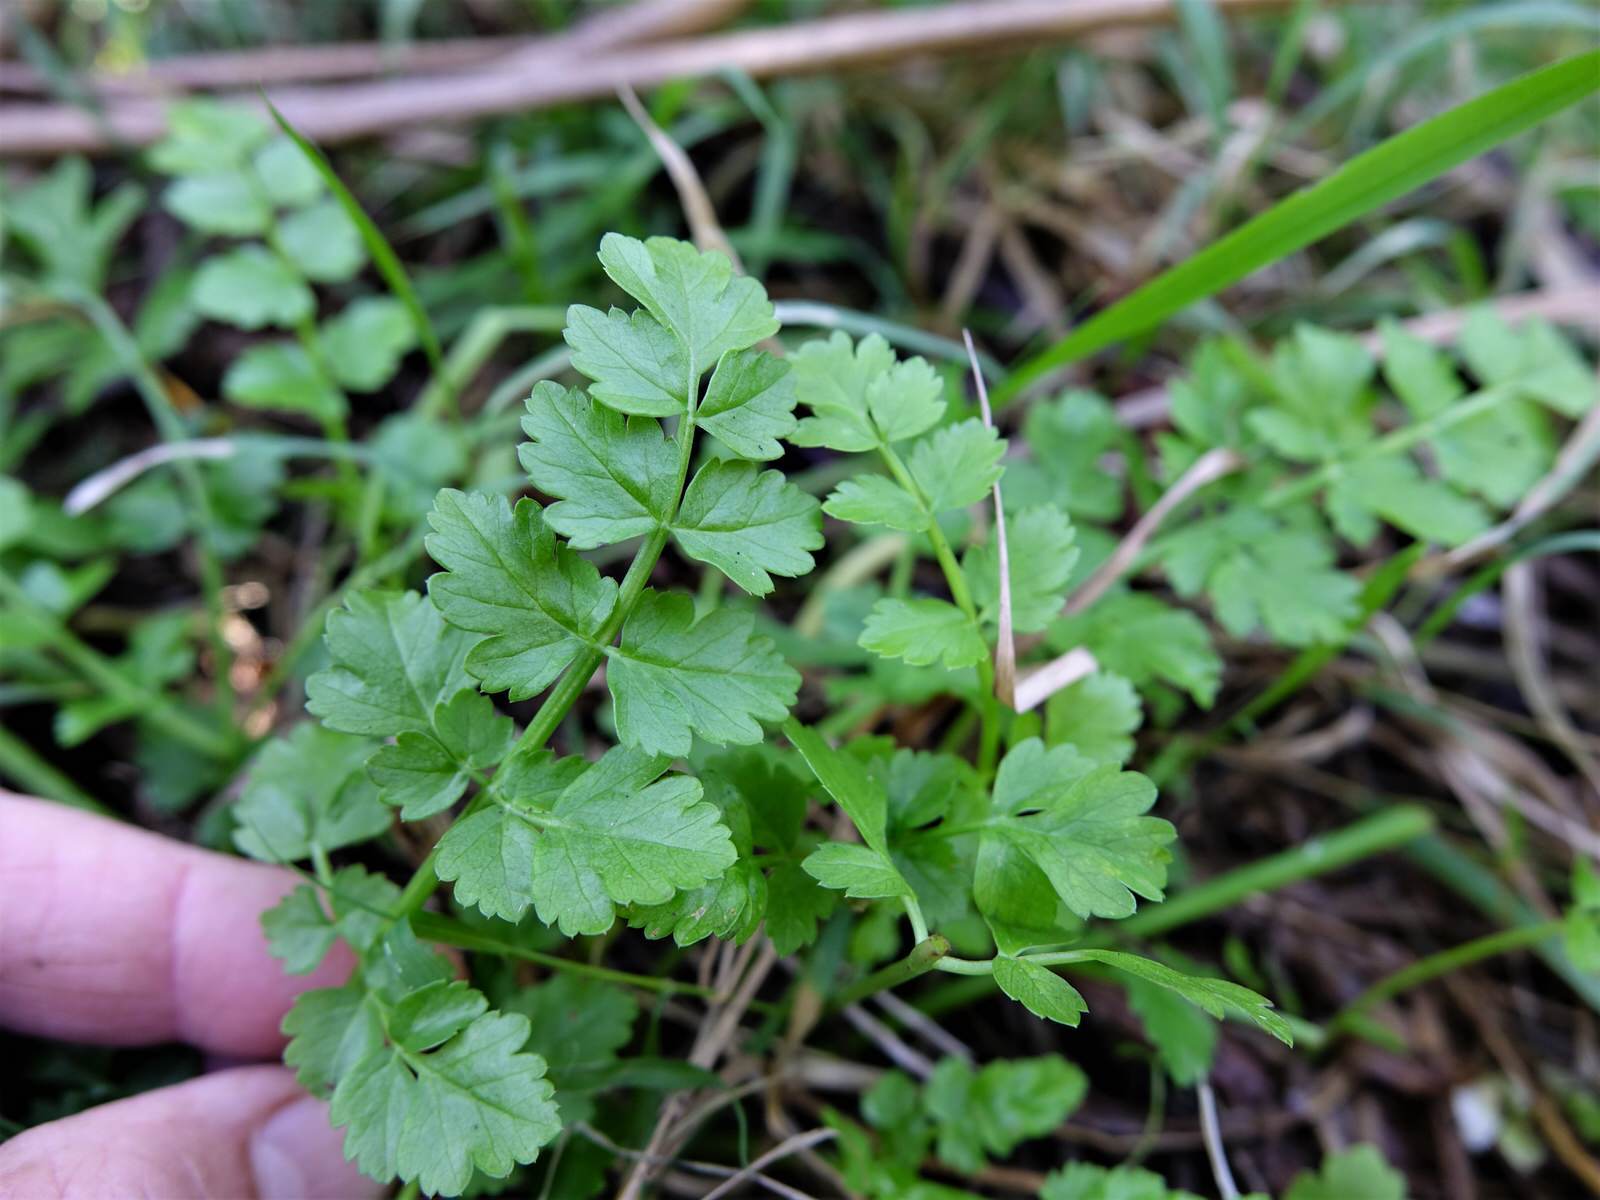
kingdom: Plantae
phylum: Tracheophyta
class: Magnoliopsida
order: Apiales
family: Apiaceae
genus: Apium
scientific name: Apium prostratum
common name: Prostrate marshwort
